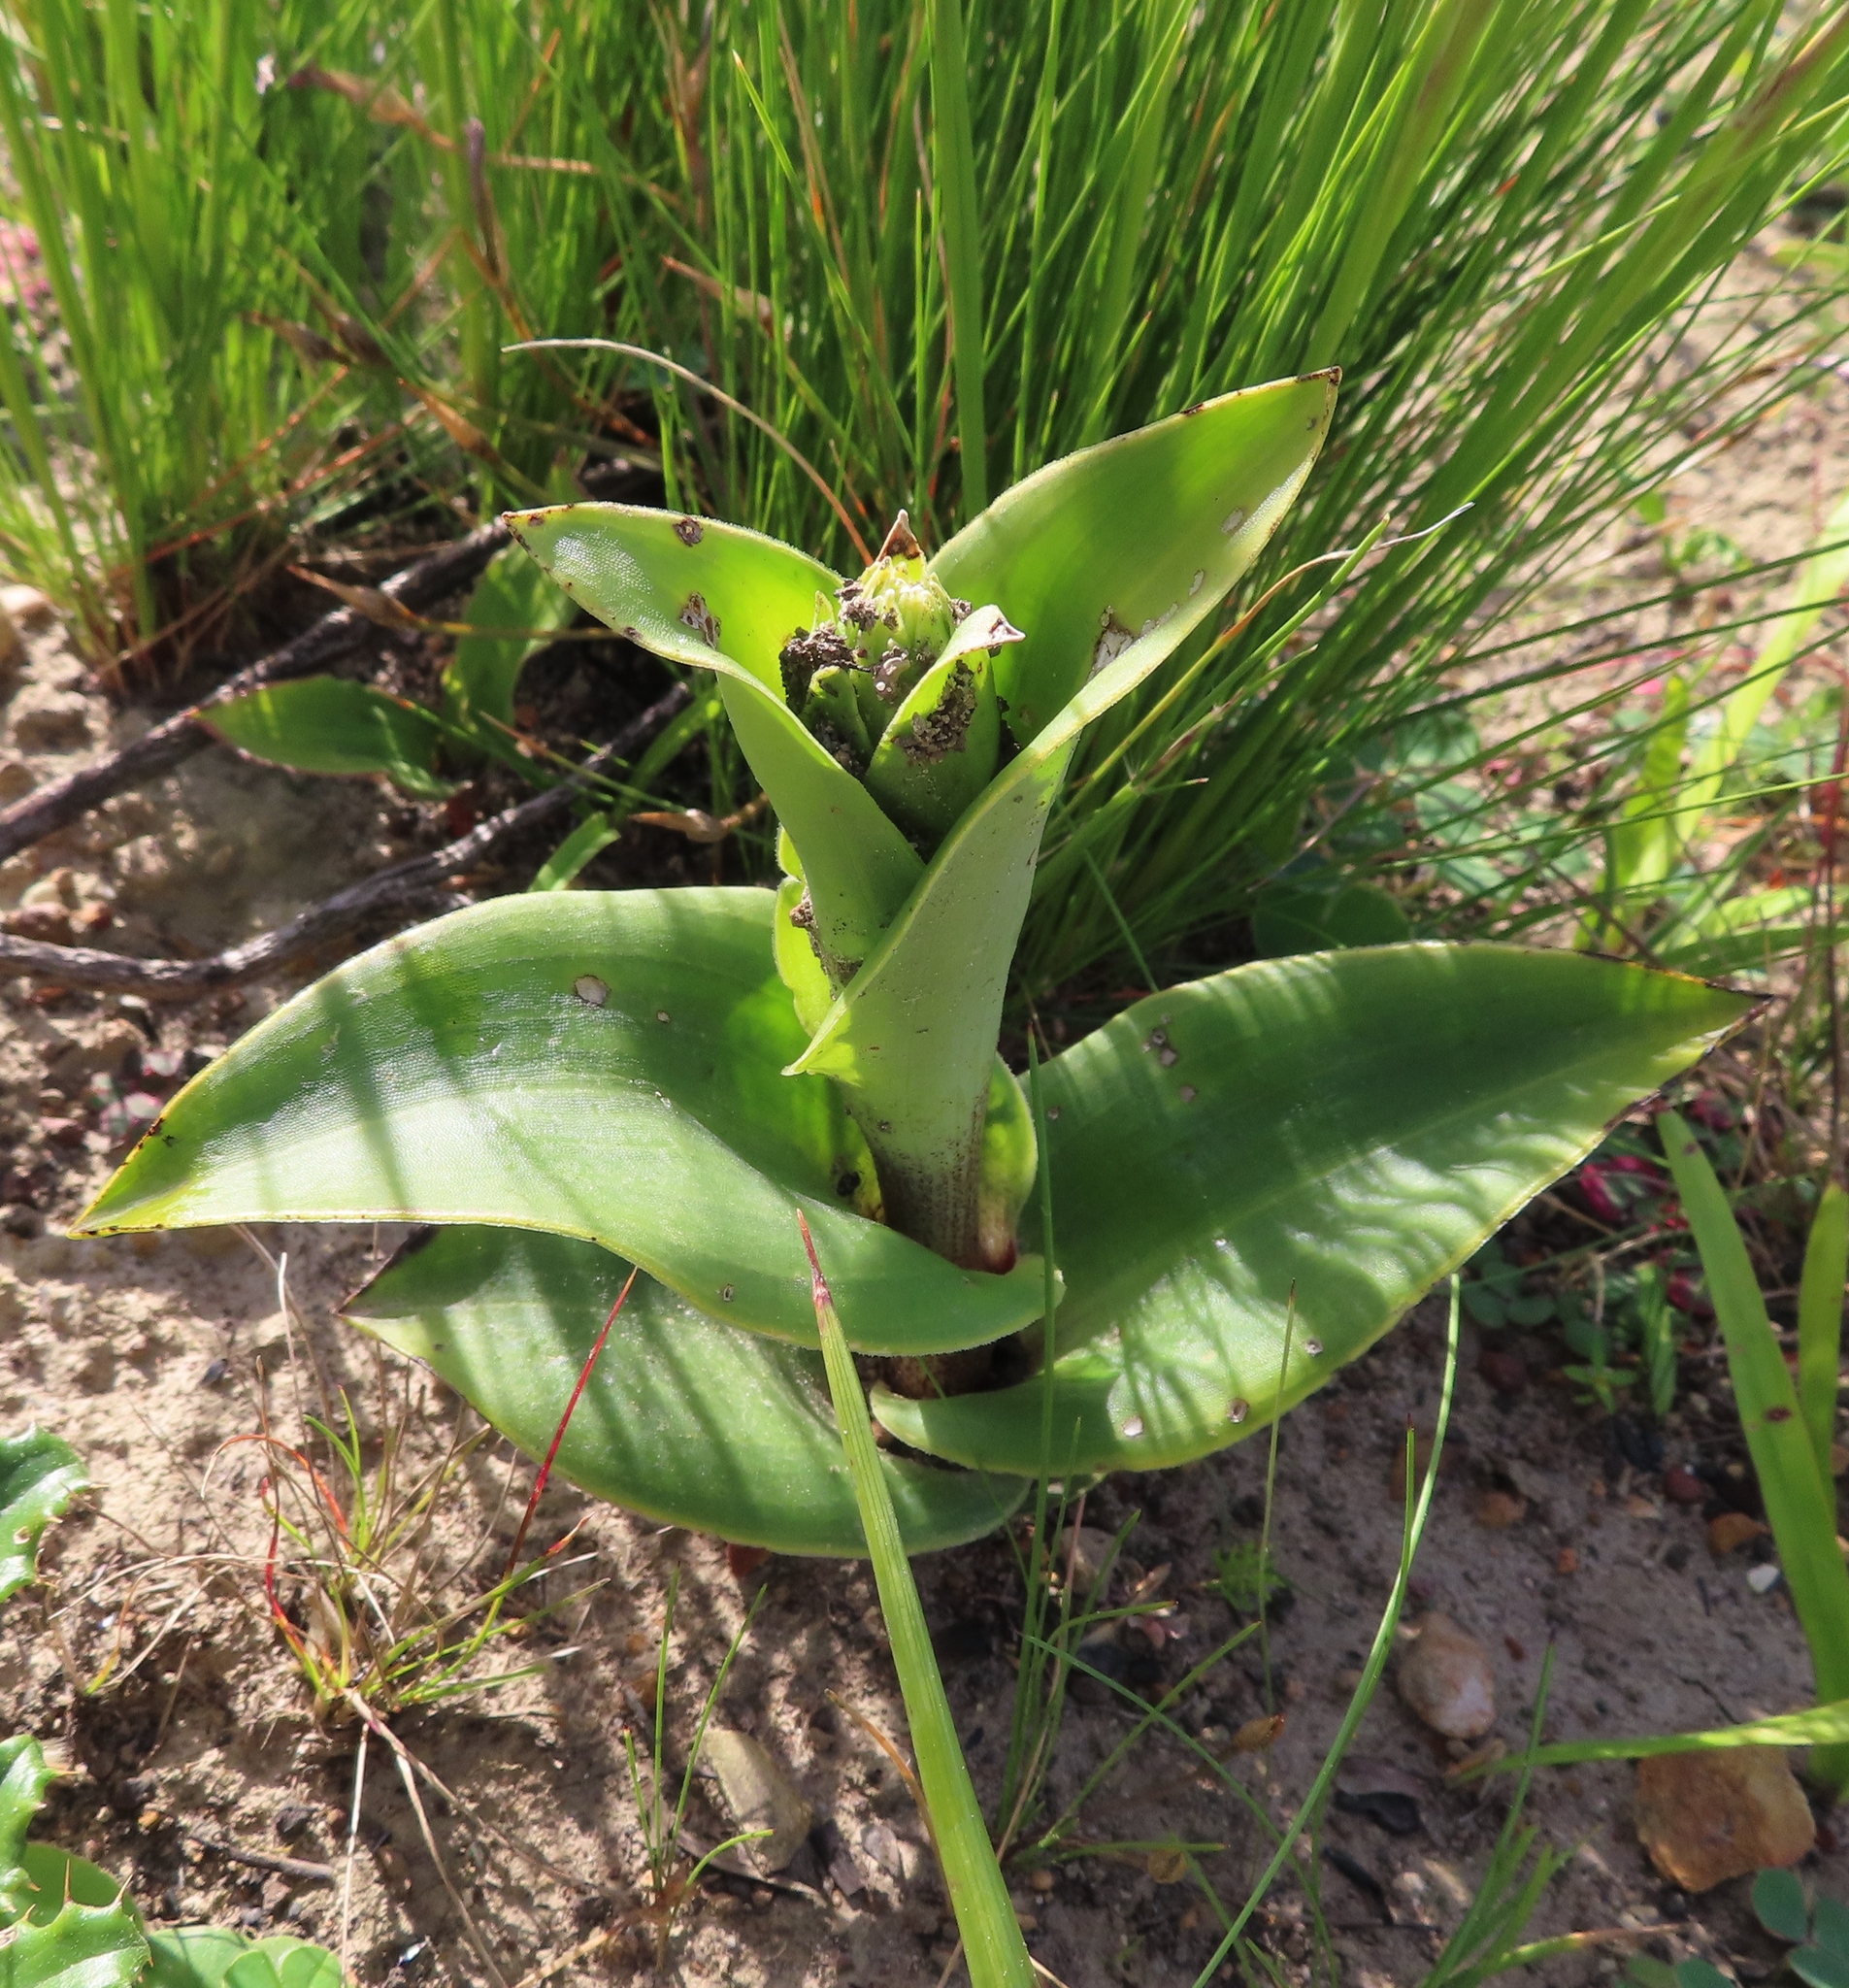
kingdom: Plantae
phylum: Tracheophyta
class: Liliopsida
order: Asparagales
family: Orchidaceae
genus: Satyrium
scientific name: Satyrium coriifolium
